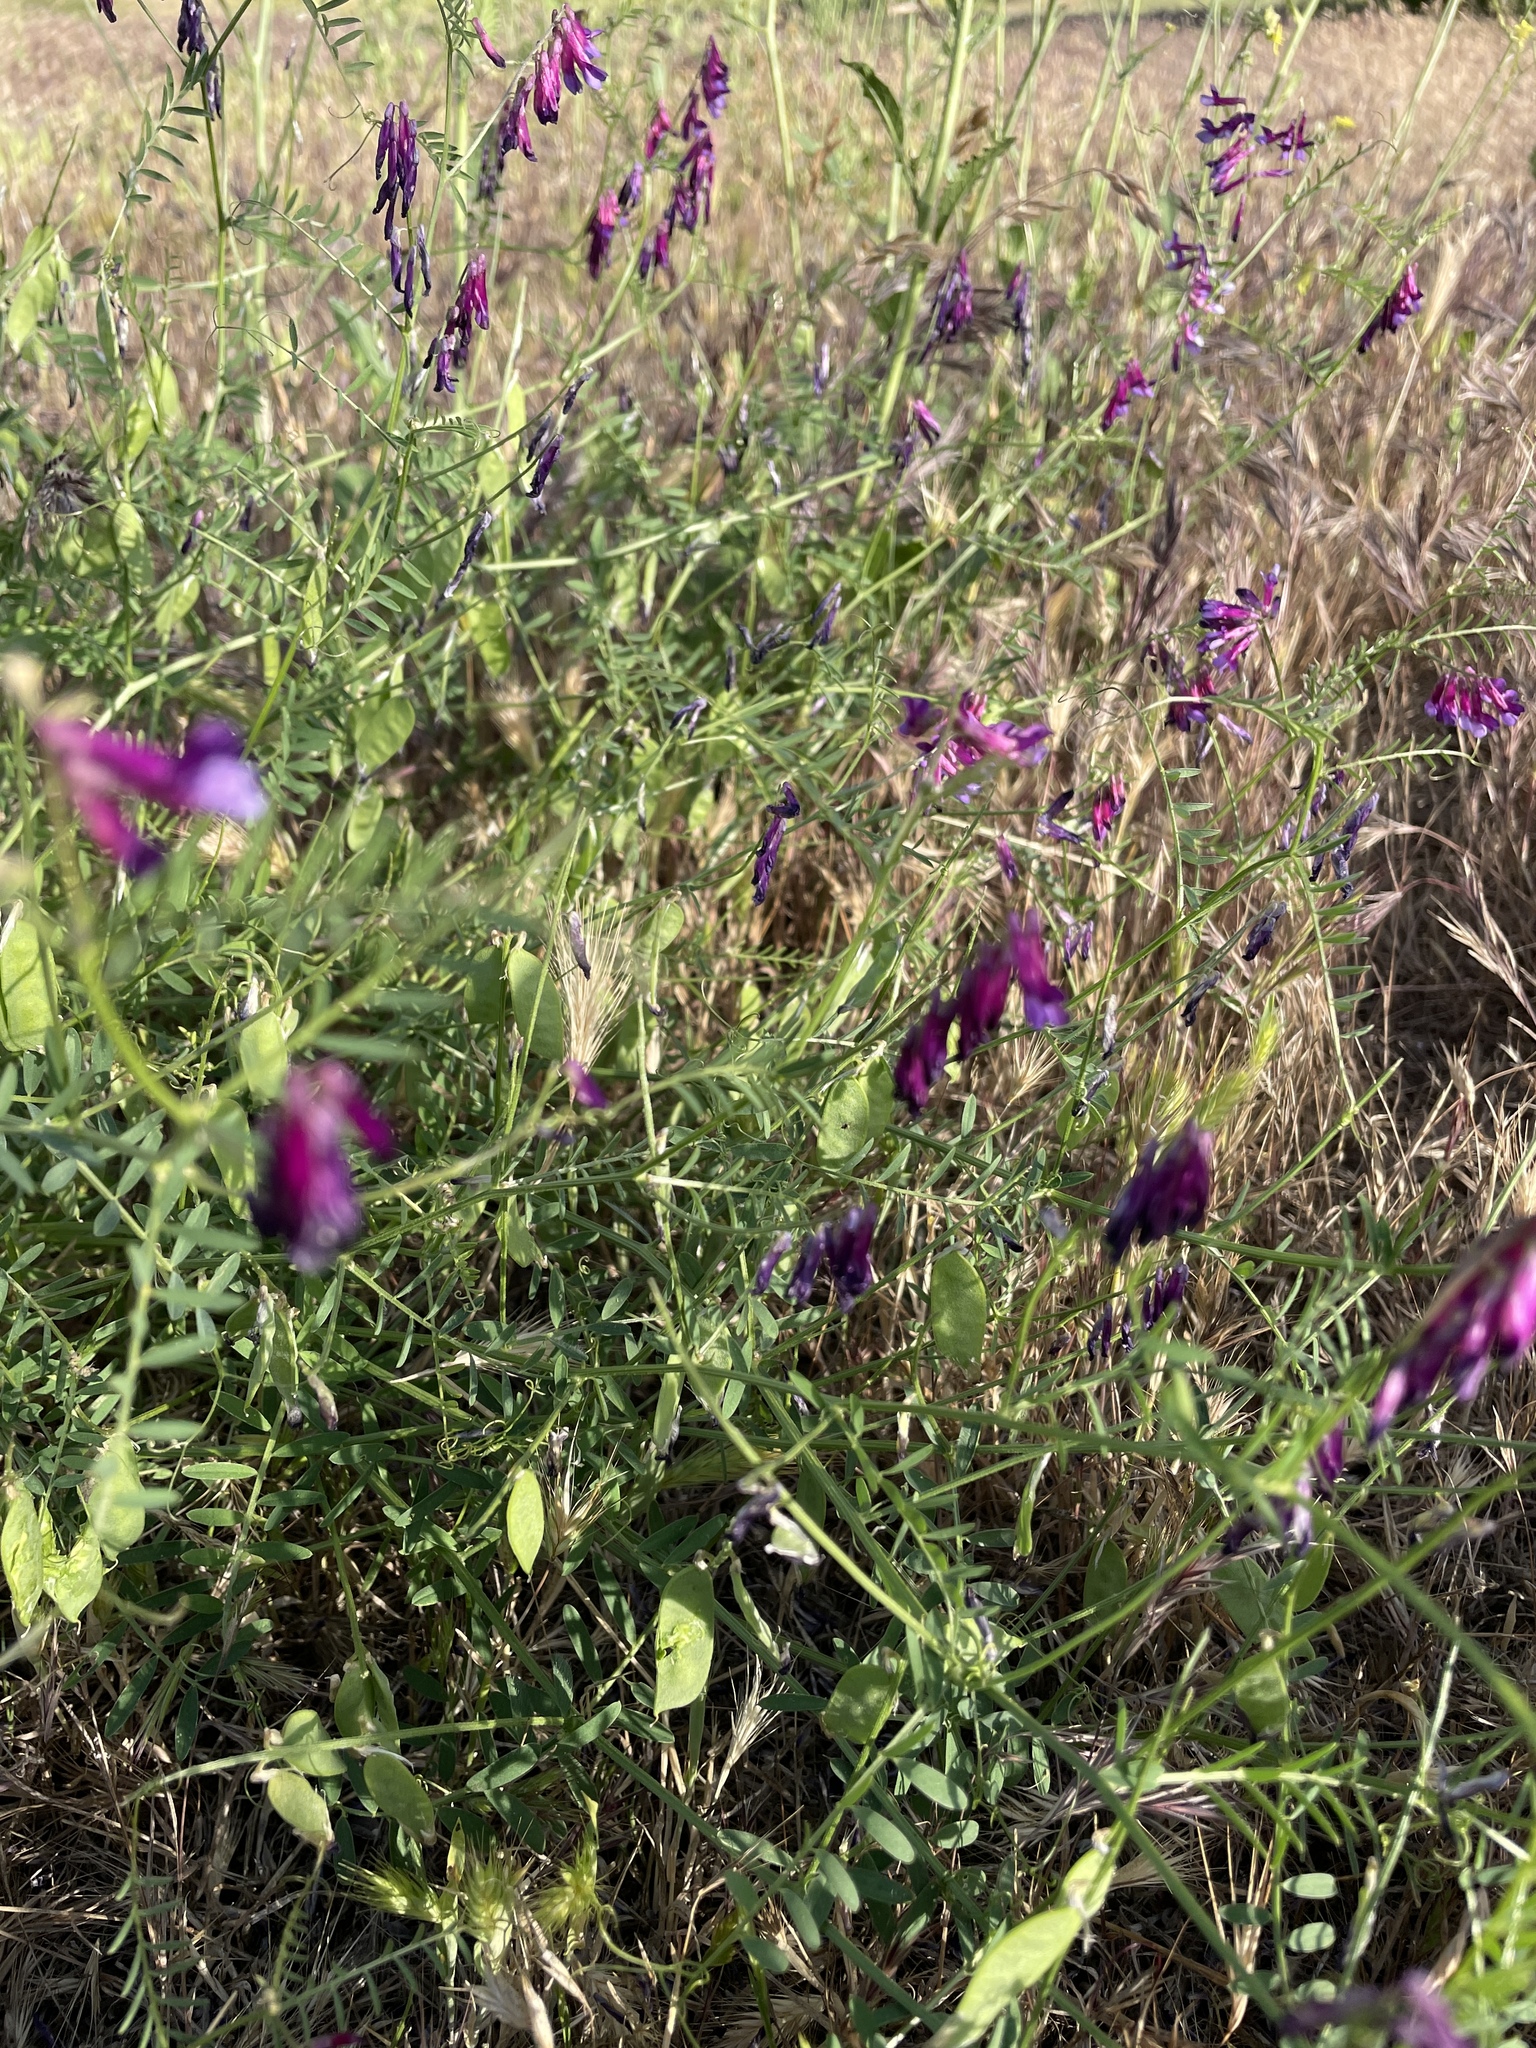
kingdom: Plantae
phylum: Tracheophyta
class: Magnoliopsida
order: Fabales
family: Fabaceae
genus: Vicia
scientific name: Vicia villosa
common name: Fodder vetch
